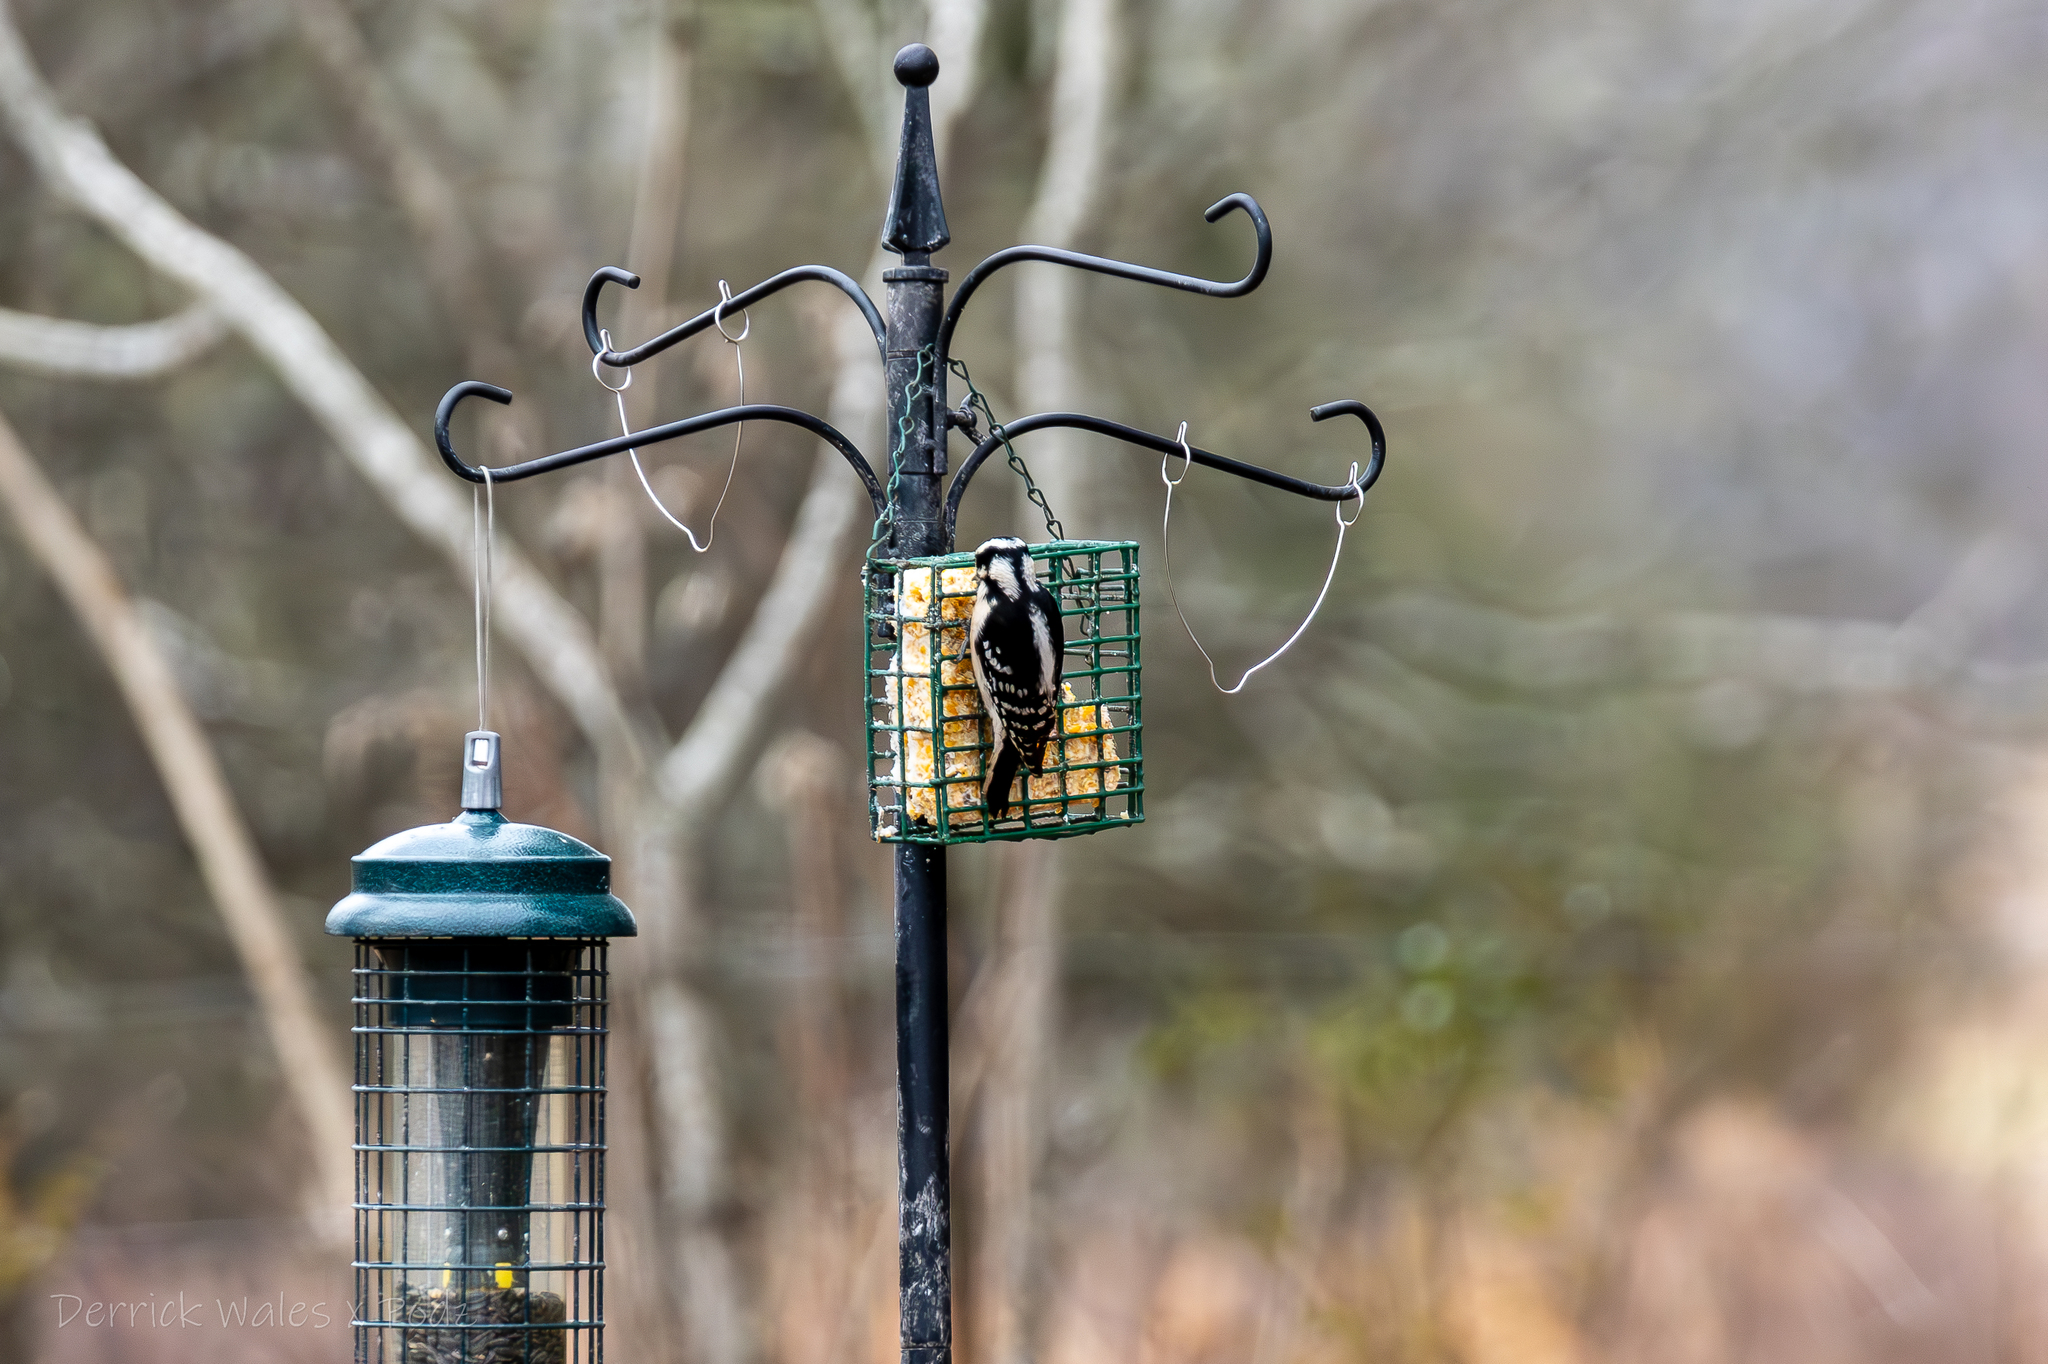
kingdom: Animalia
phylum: Chordata
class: Aves
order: Piciformes
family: Picidae
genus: Dryobates
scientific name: Dryobates pubescens
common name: Downy woodpecker
